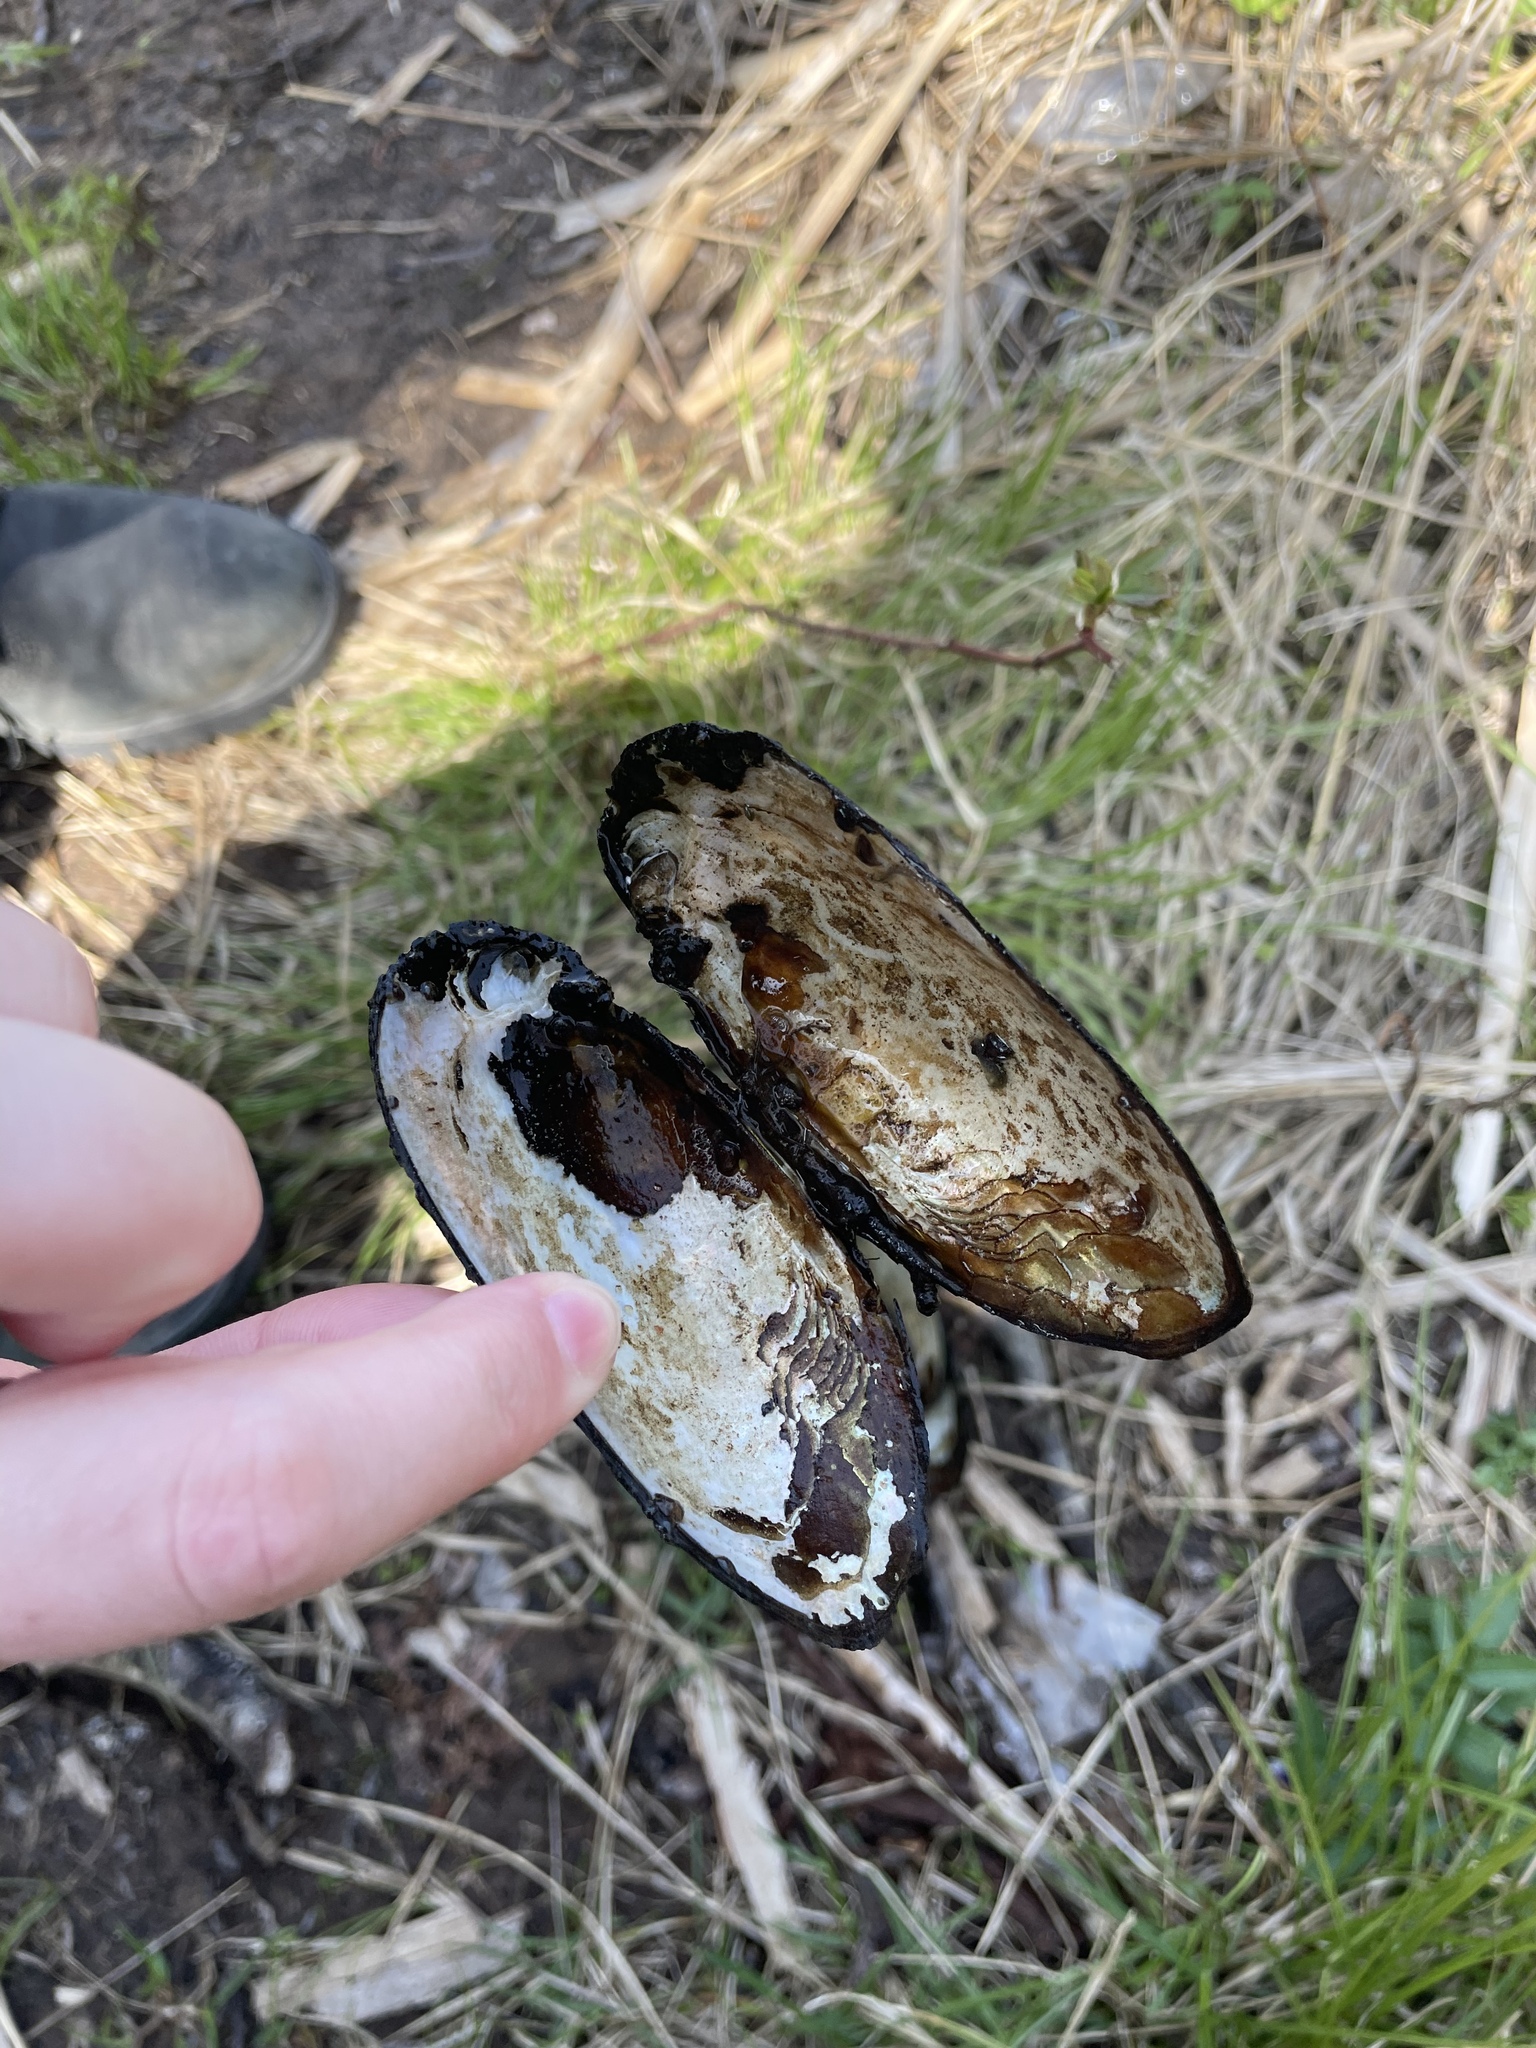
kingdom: Animalia
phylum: Mollusca
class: Bivalvia
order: Unionida
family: Unionidae
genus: Elliptio
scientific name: Elliptio complanata
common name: Eastern elliptio
